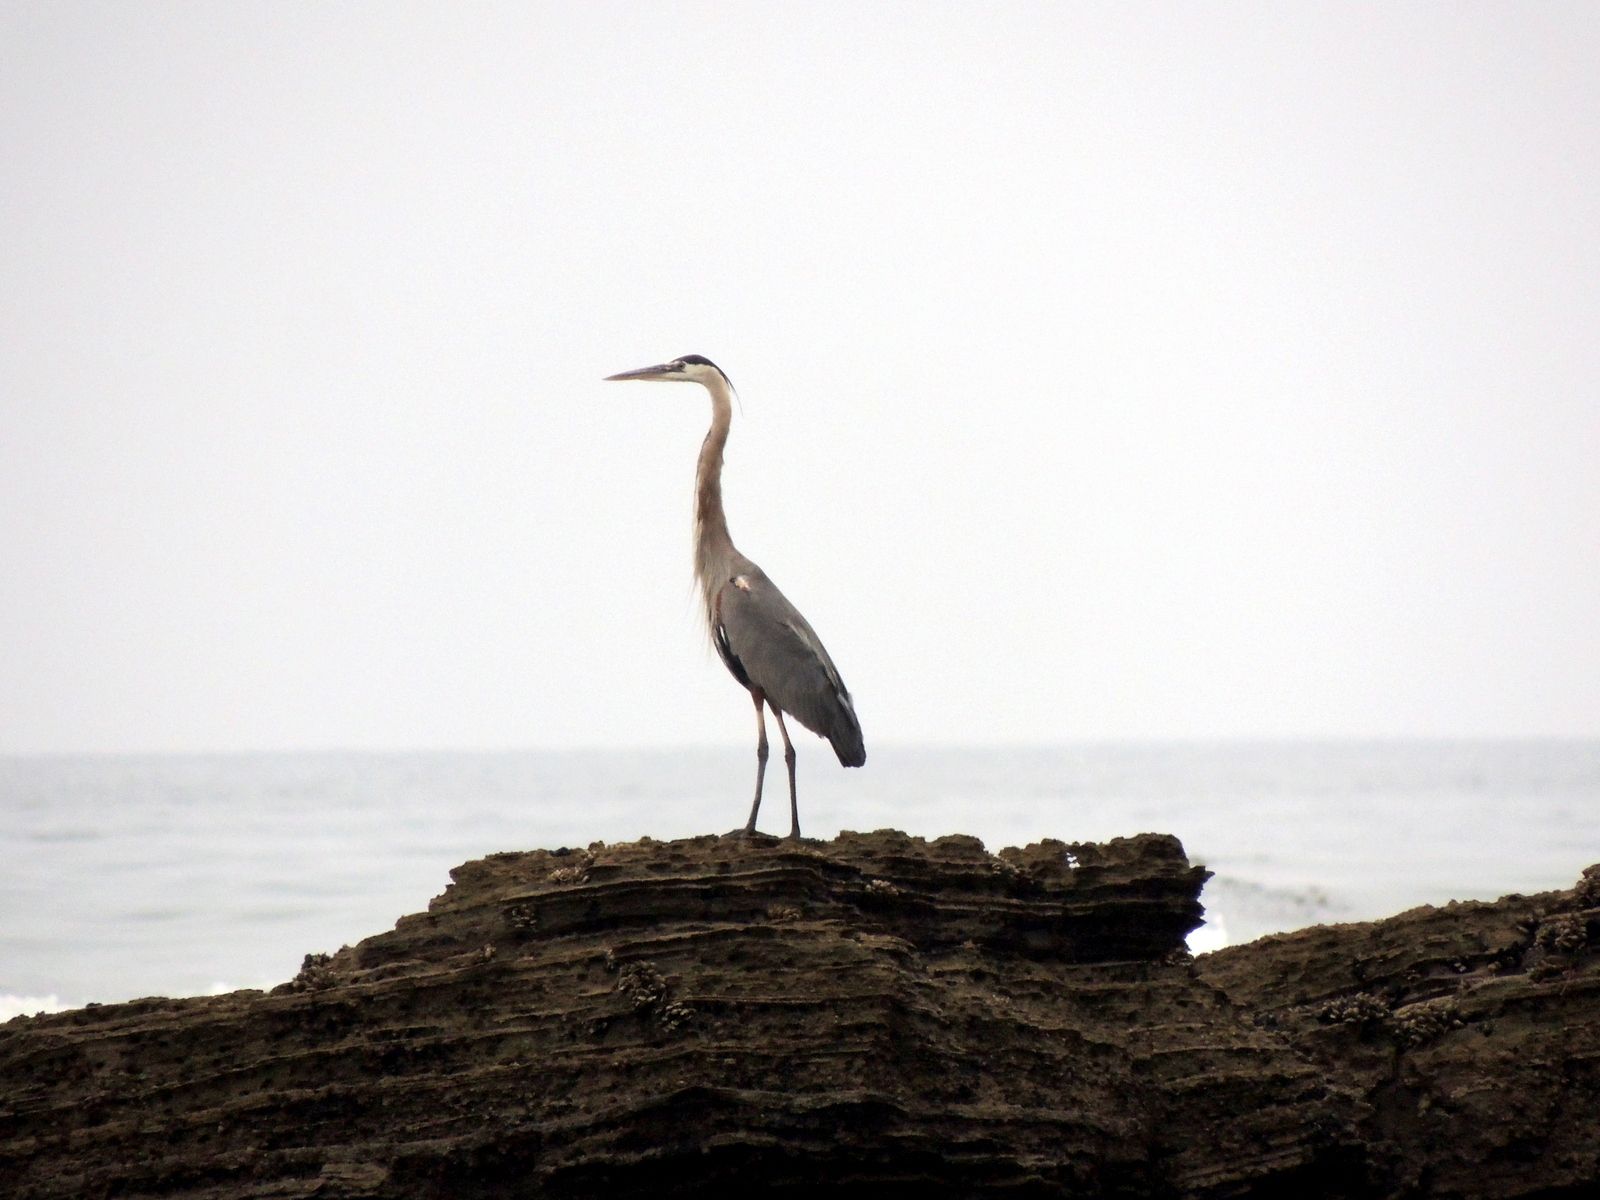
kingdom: Animalia
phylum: Chordata
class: Aves
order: Pelecaniformes
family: Ardeidae
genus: Ardea
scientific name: Ardea herodias
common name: Great blue heron
